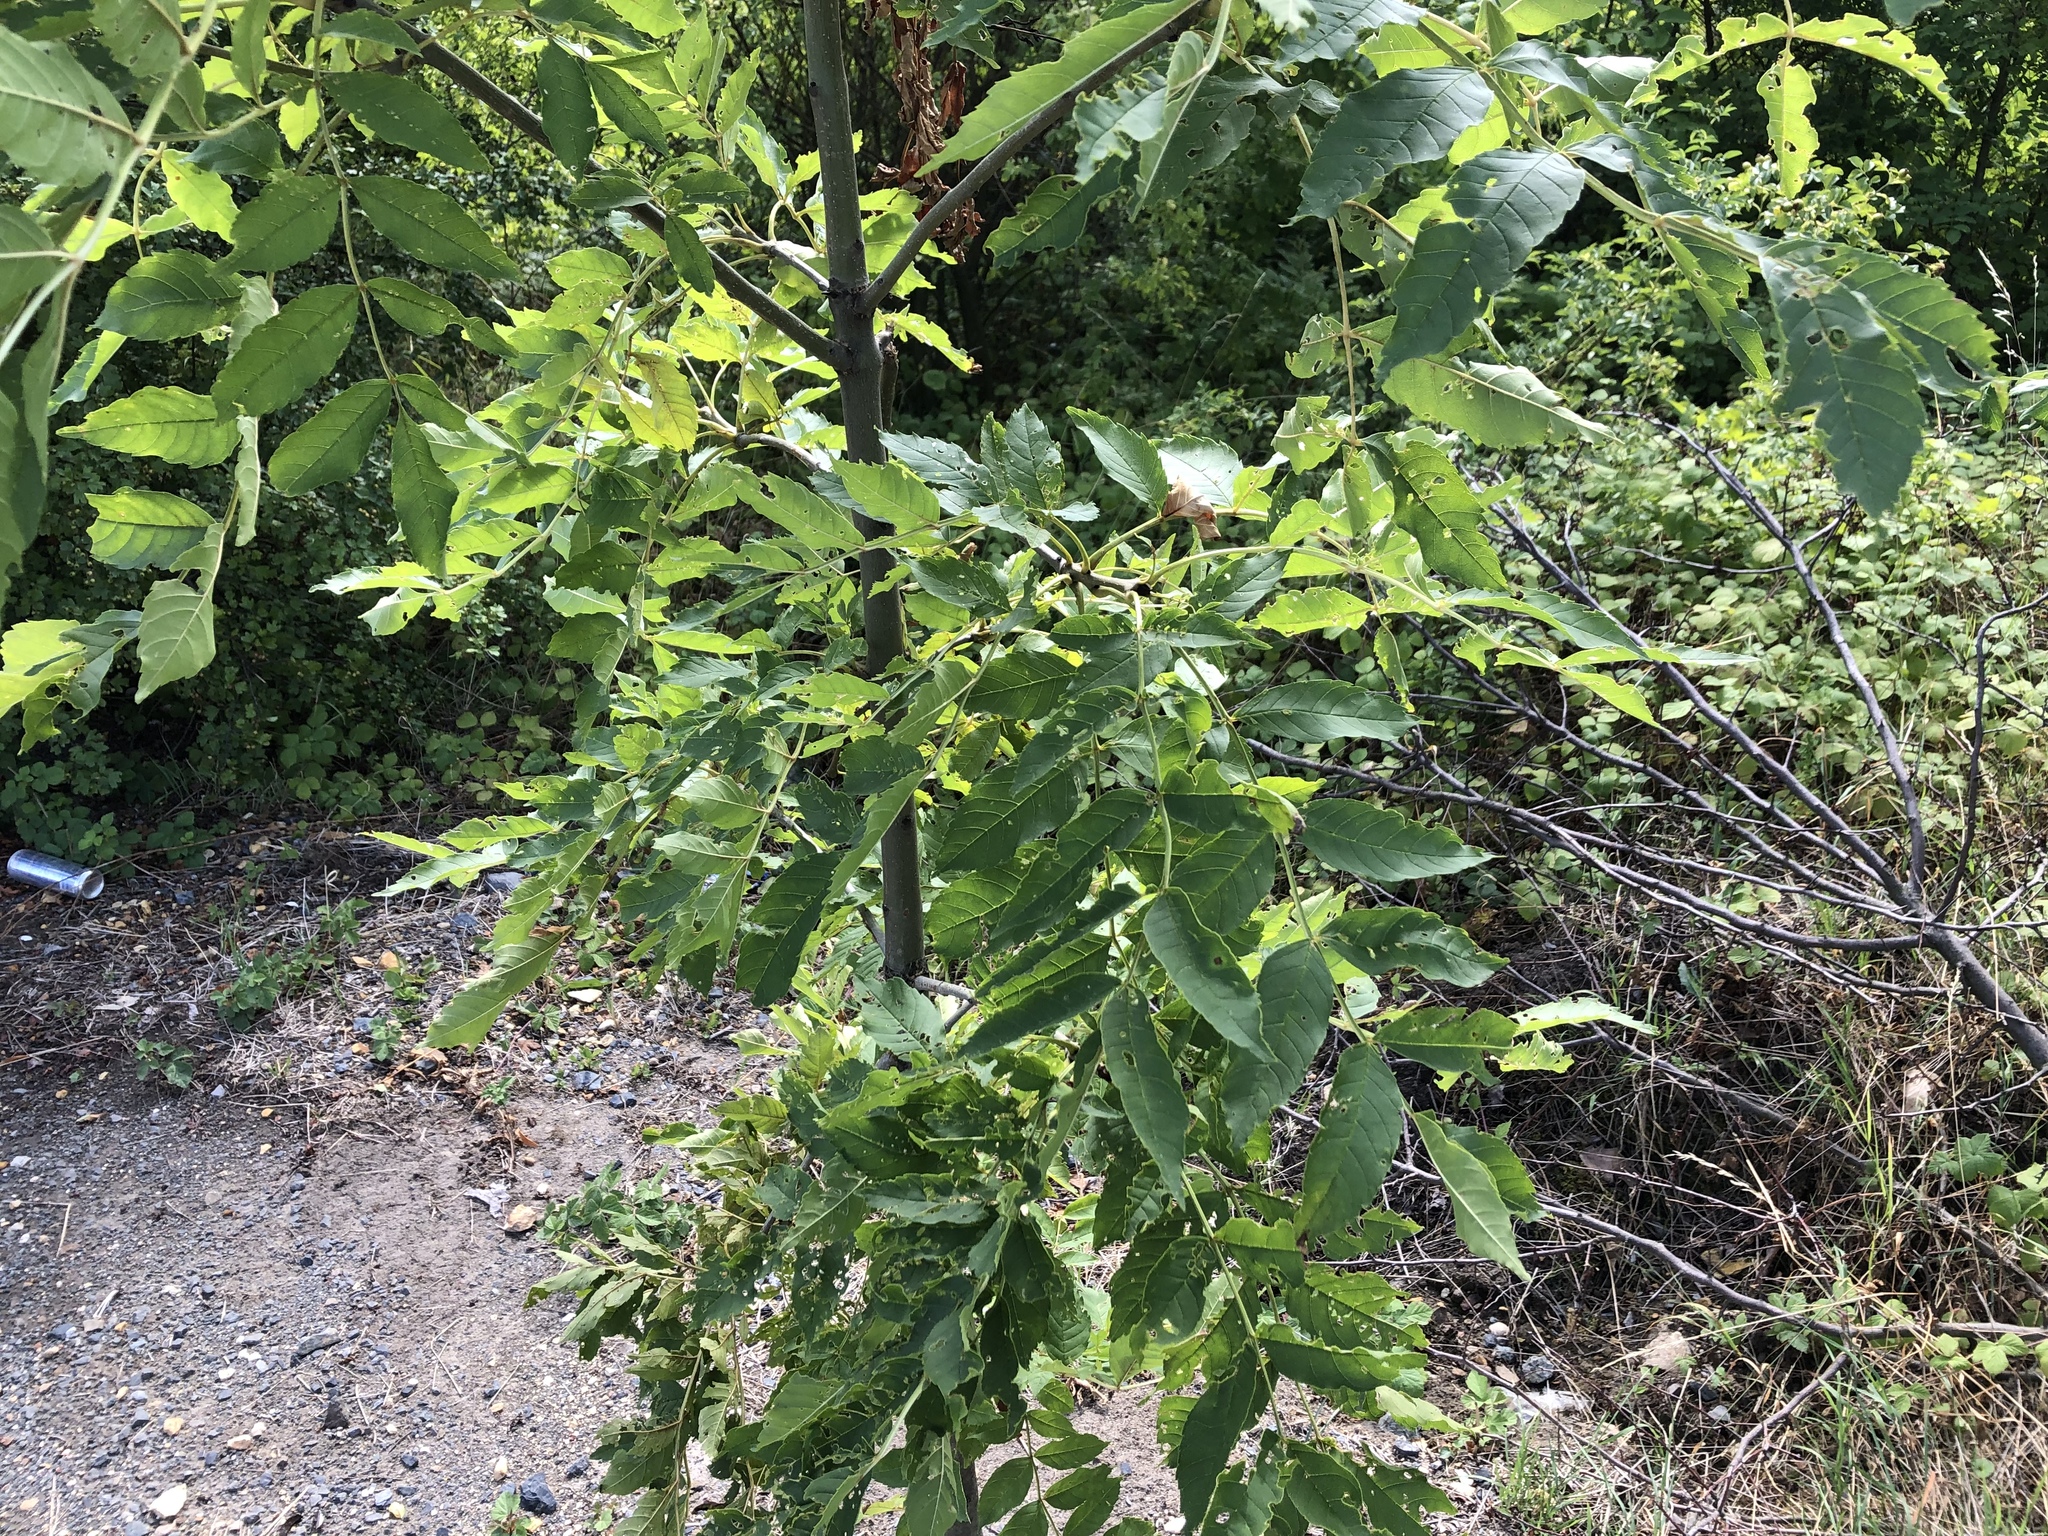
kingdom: Plantae
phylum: Tracheophyta
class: Magnoliopsida
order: Lamiales
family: Oleaceae
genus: Fraxinus
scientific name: Fraxinus excelsior
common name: European ash
